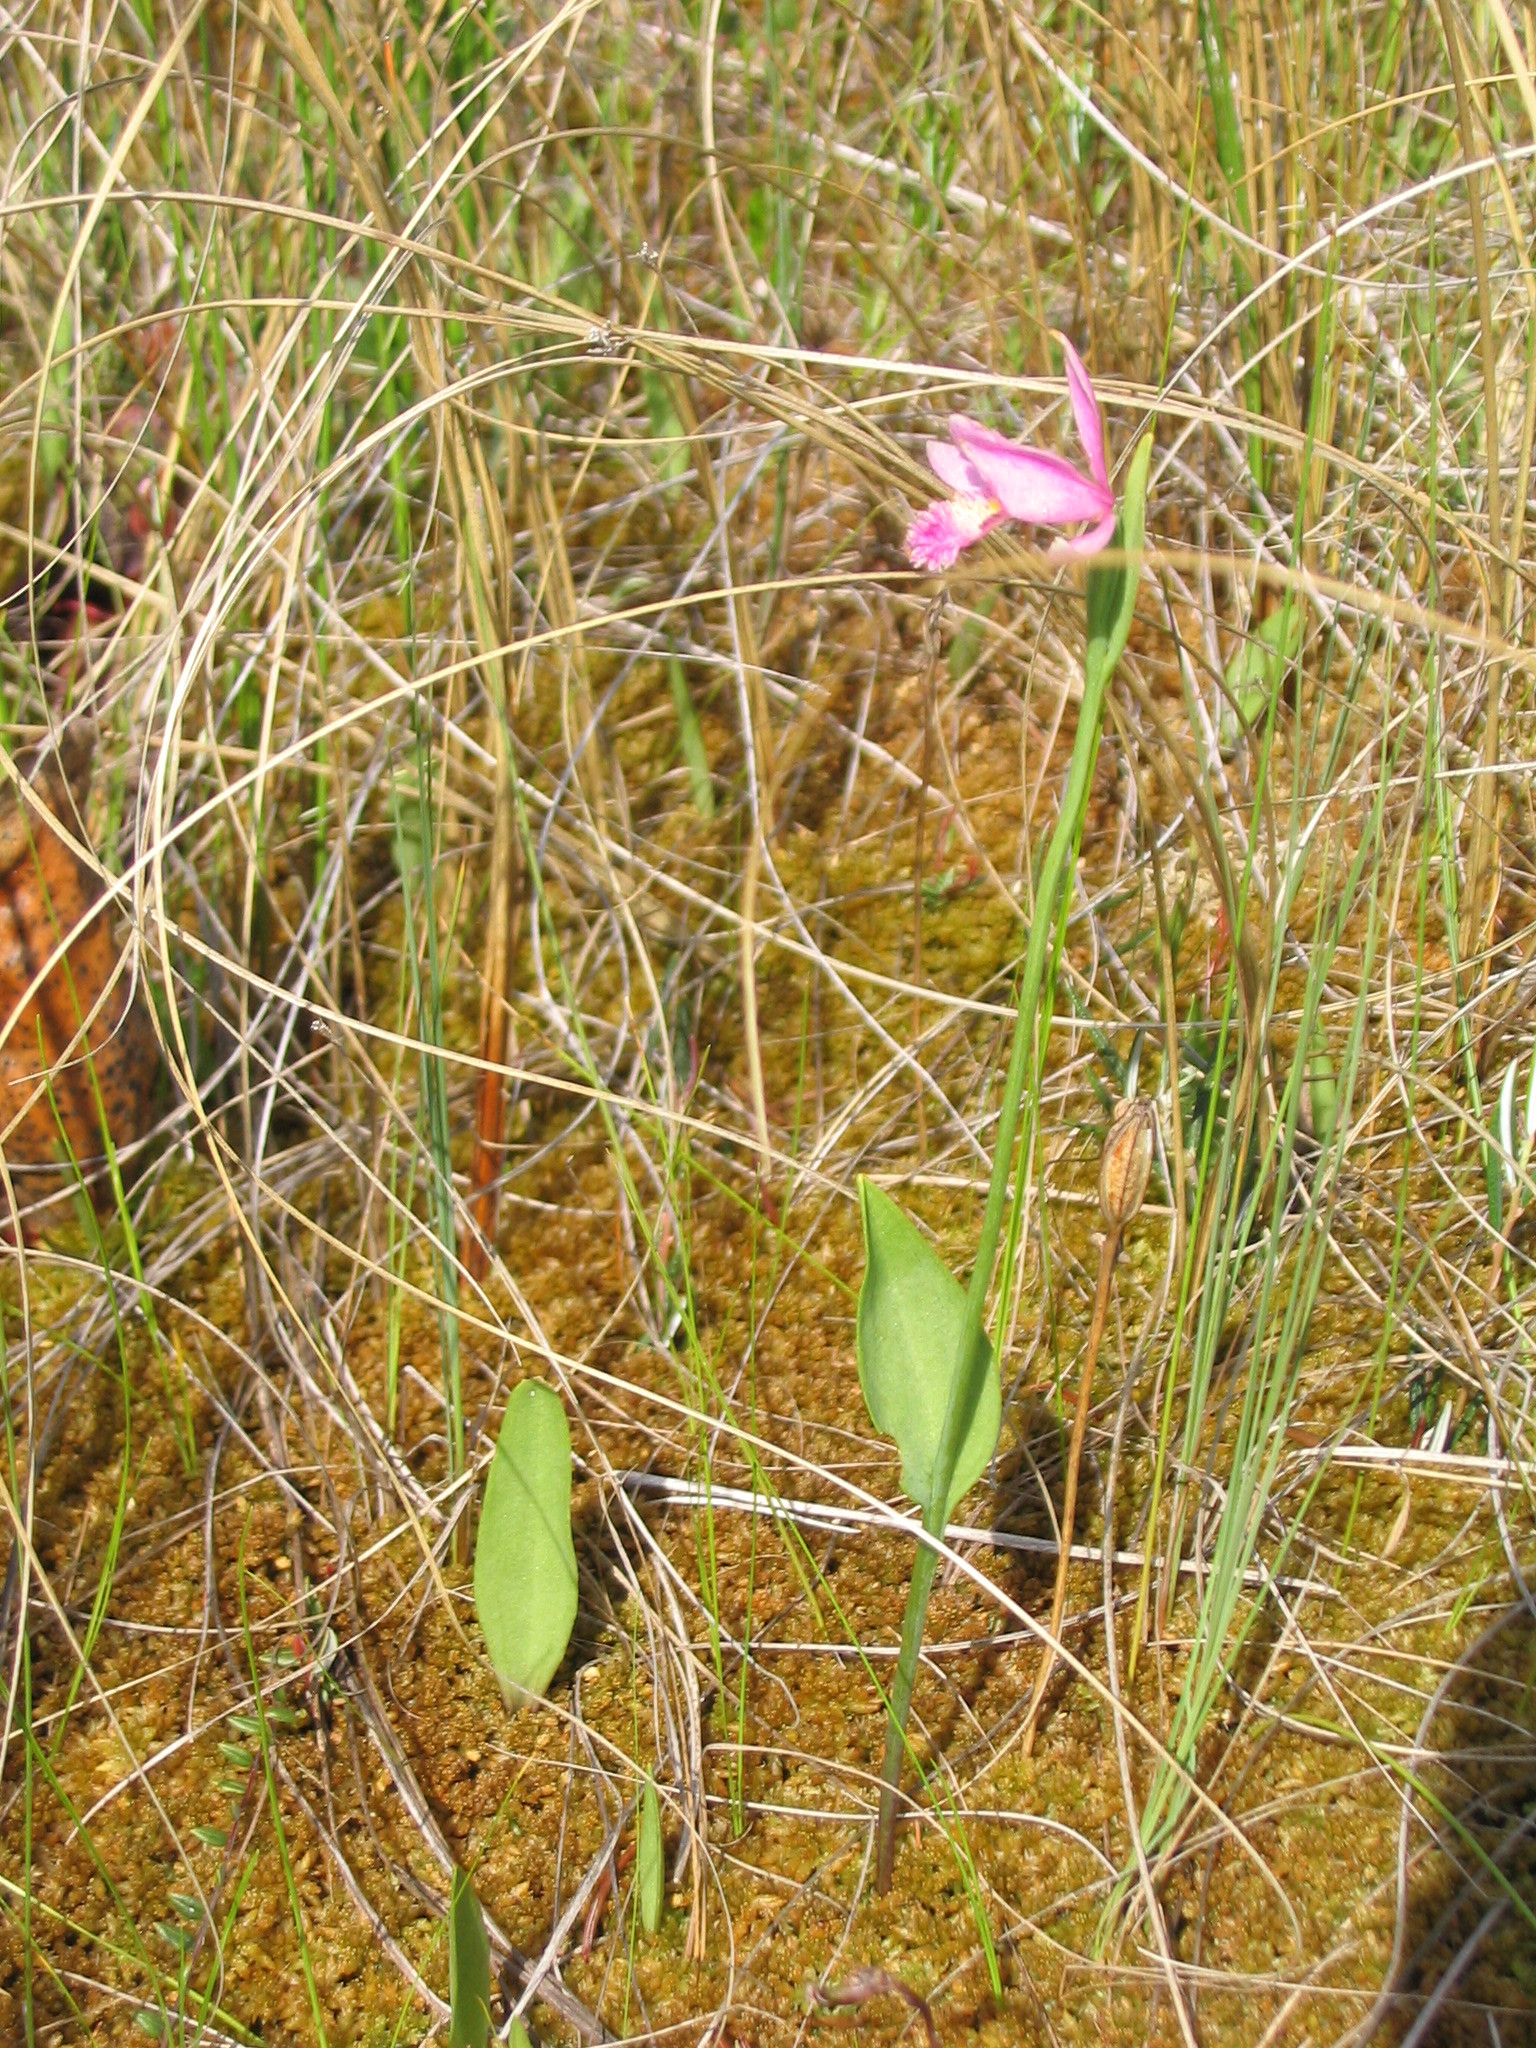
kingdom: Plantae
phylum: Tracheophyta
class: Liliopsida
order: Asparagales
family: Orchidaceae
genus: Pogonia
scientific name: Pogonia ophioglossoides
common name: Rose pogonia
